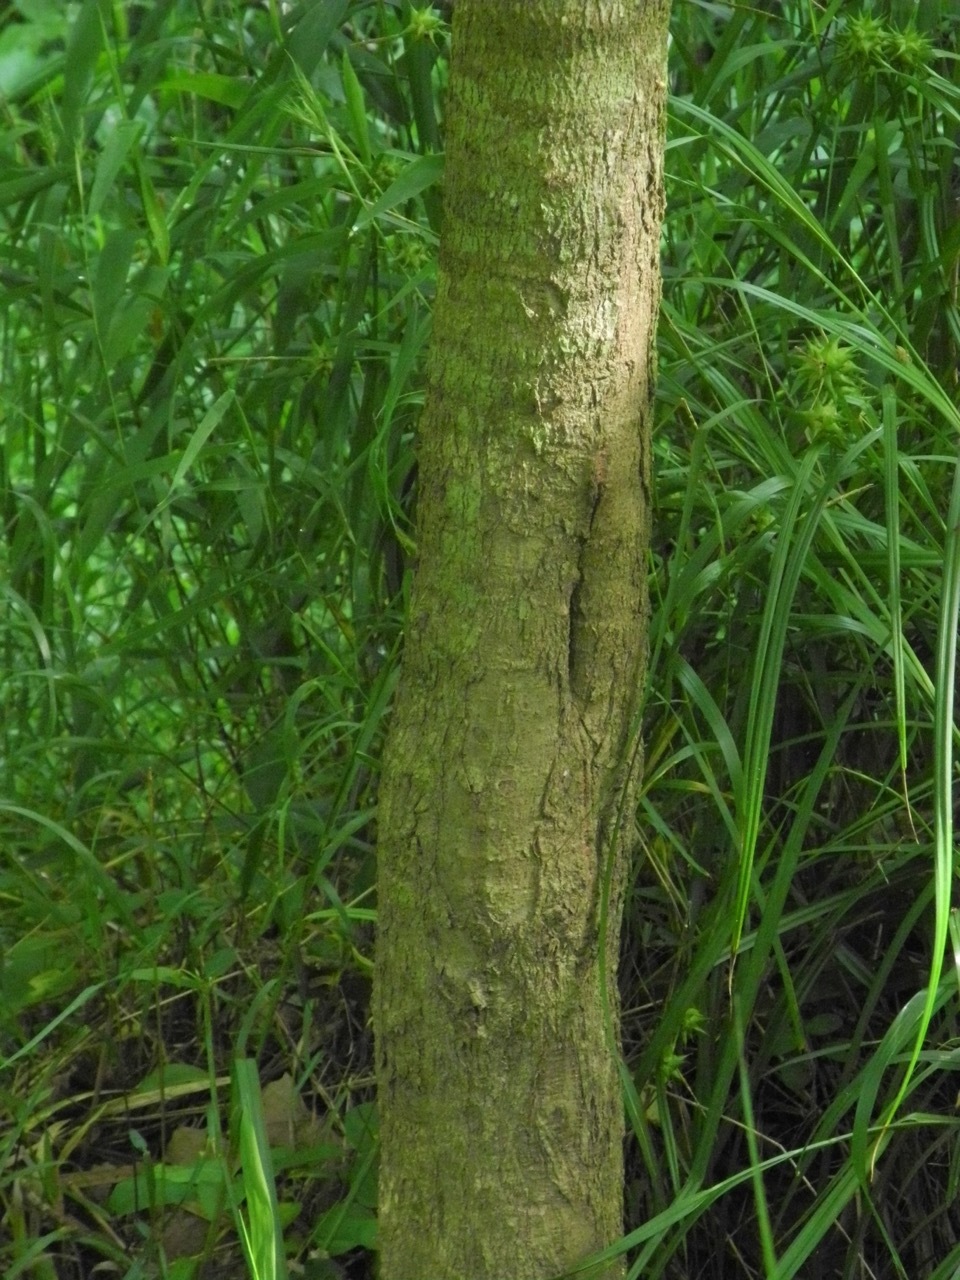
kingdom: Plantae
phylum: Tracheophyta
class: Magnoliopsida
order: Sapindales
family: Sapindaceae
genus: Acer
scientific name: Acer negundo
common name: Ashleaf maple
